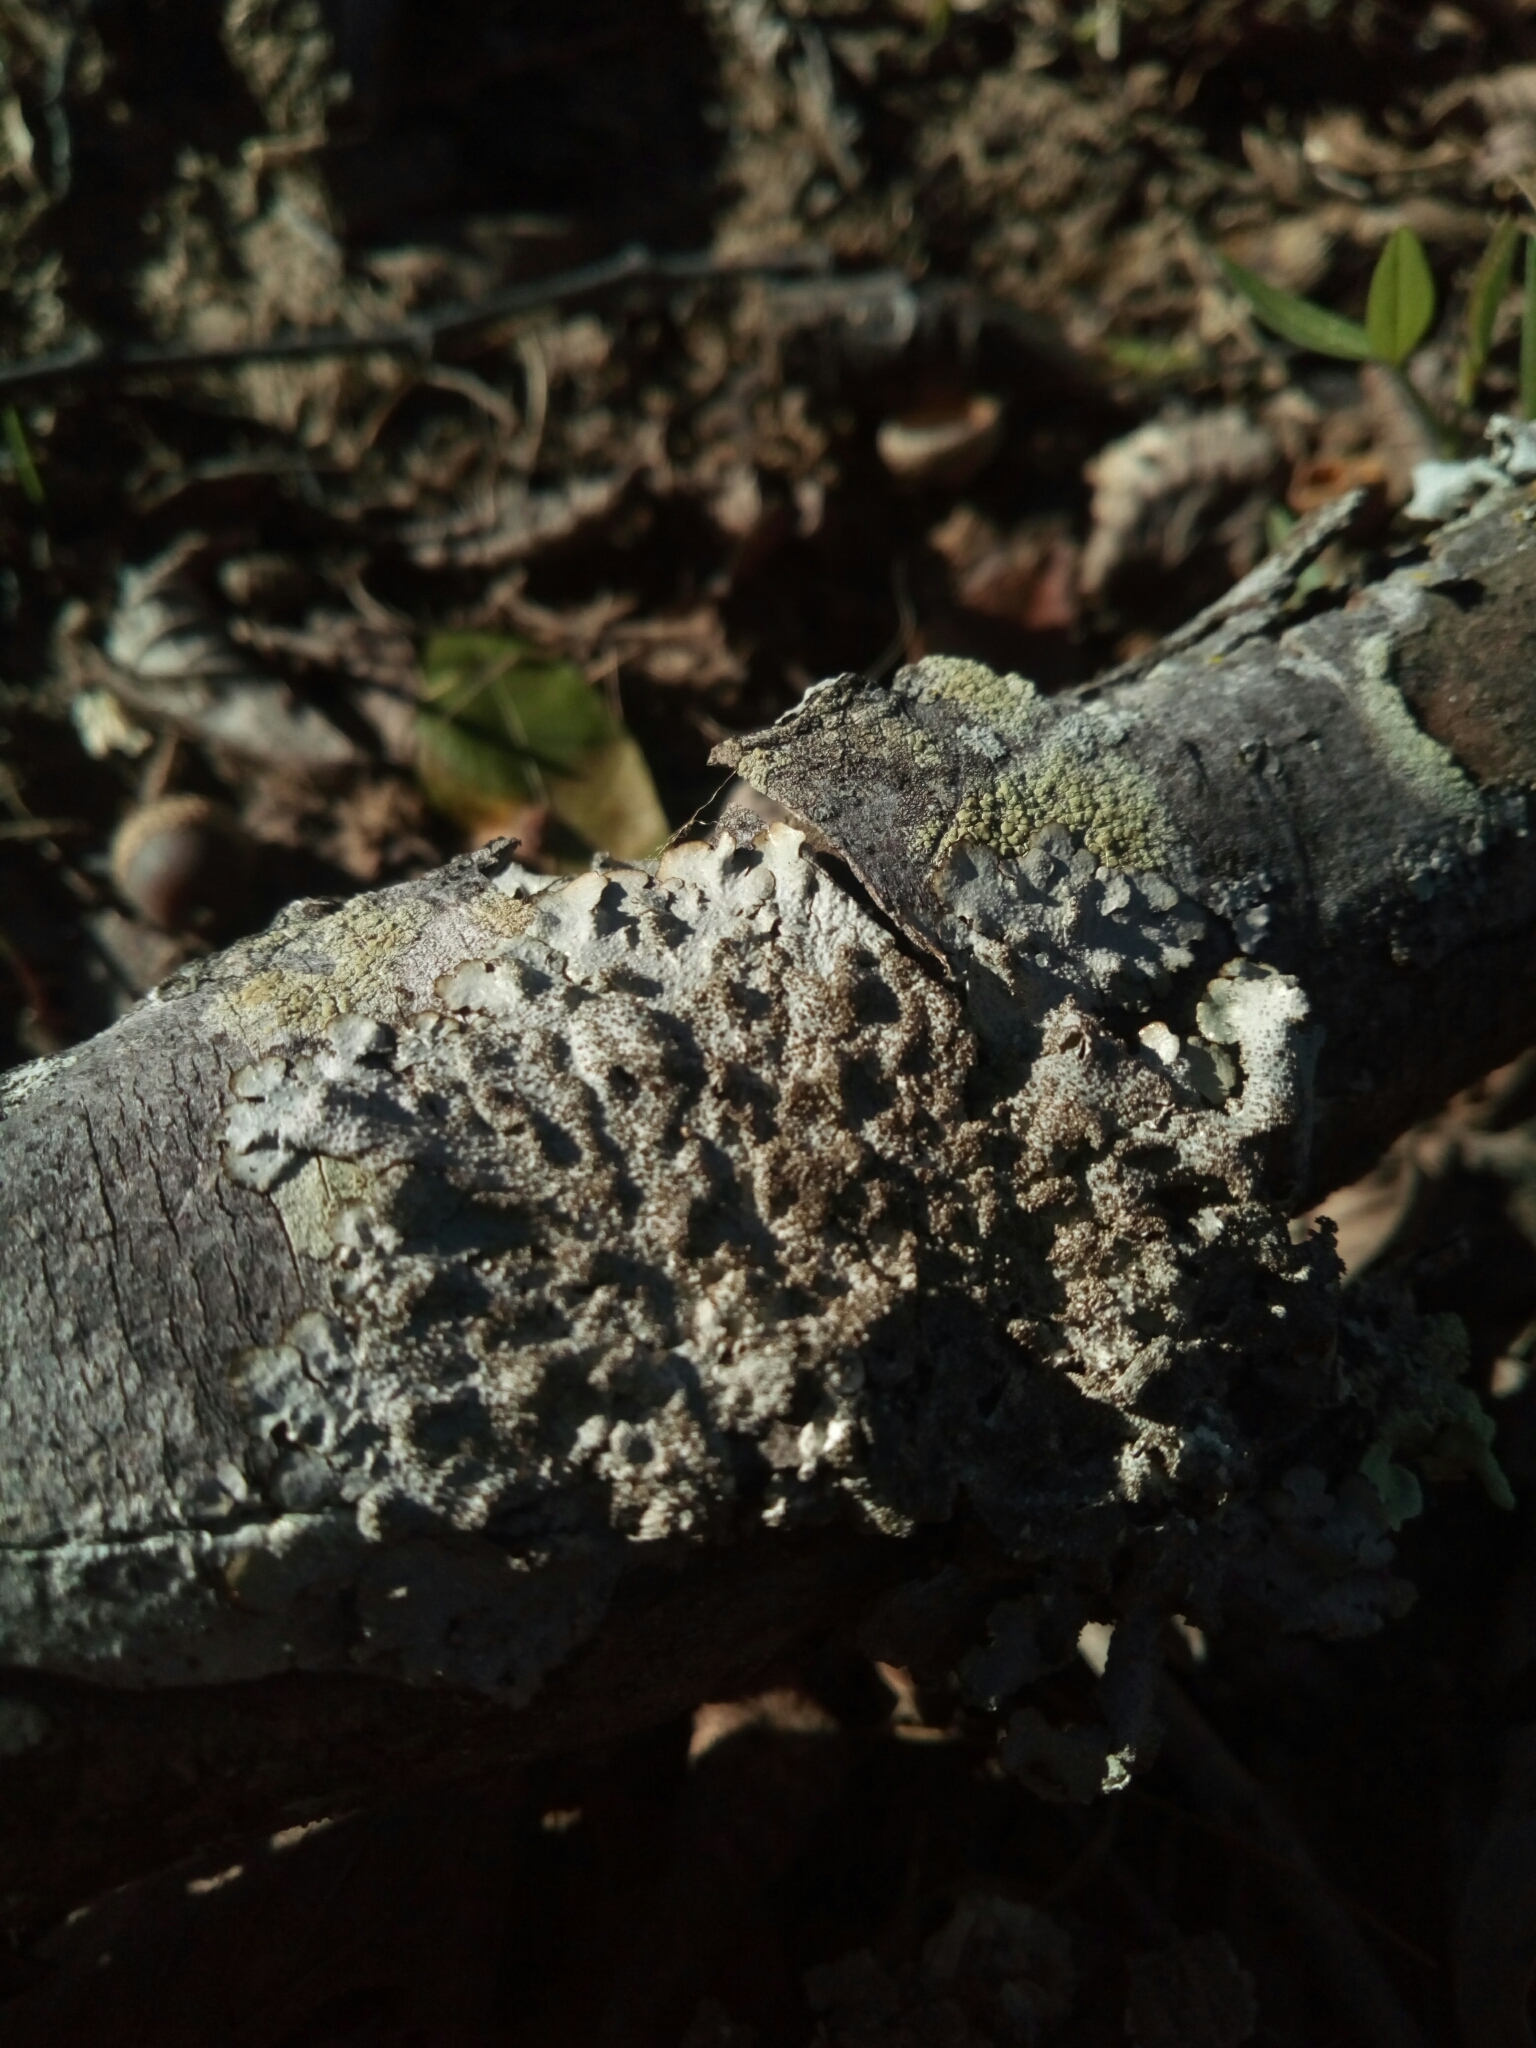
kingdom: Fungi
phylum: Ascomycota
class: Lecanoromycetes
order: Lecanorales
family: Parmeliaceae
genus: Canoparmelia
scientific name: Canoparmelia caroliniana
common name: Carolina shield lichen
